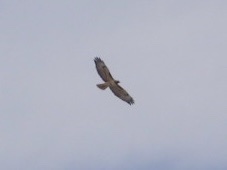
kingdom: Animalia
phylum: Chordata
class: Aves
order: Accipitriformes
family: Accipitridae
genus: Buteo
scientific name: Buteo jamaicensis
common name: Red-tailed hawk
